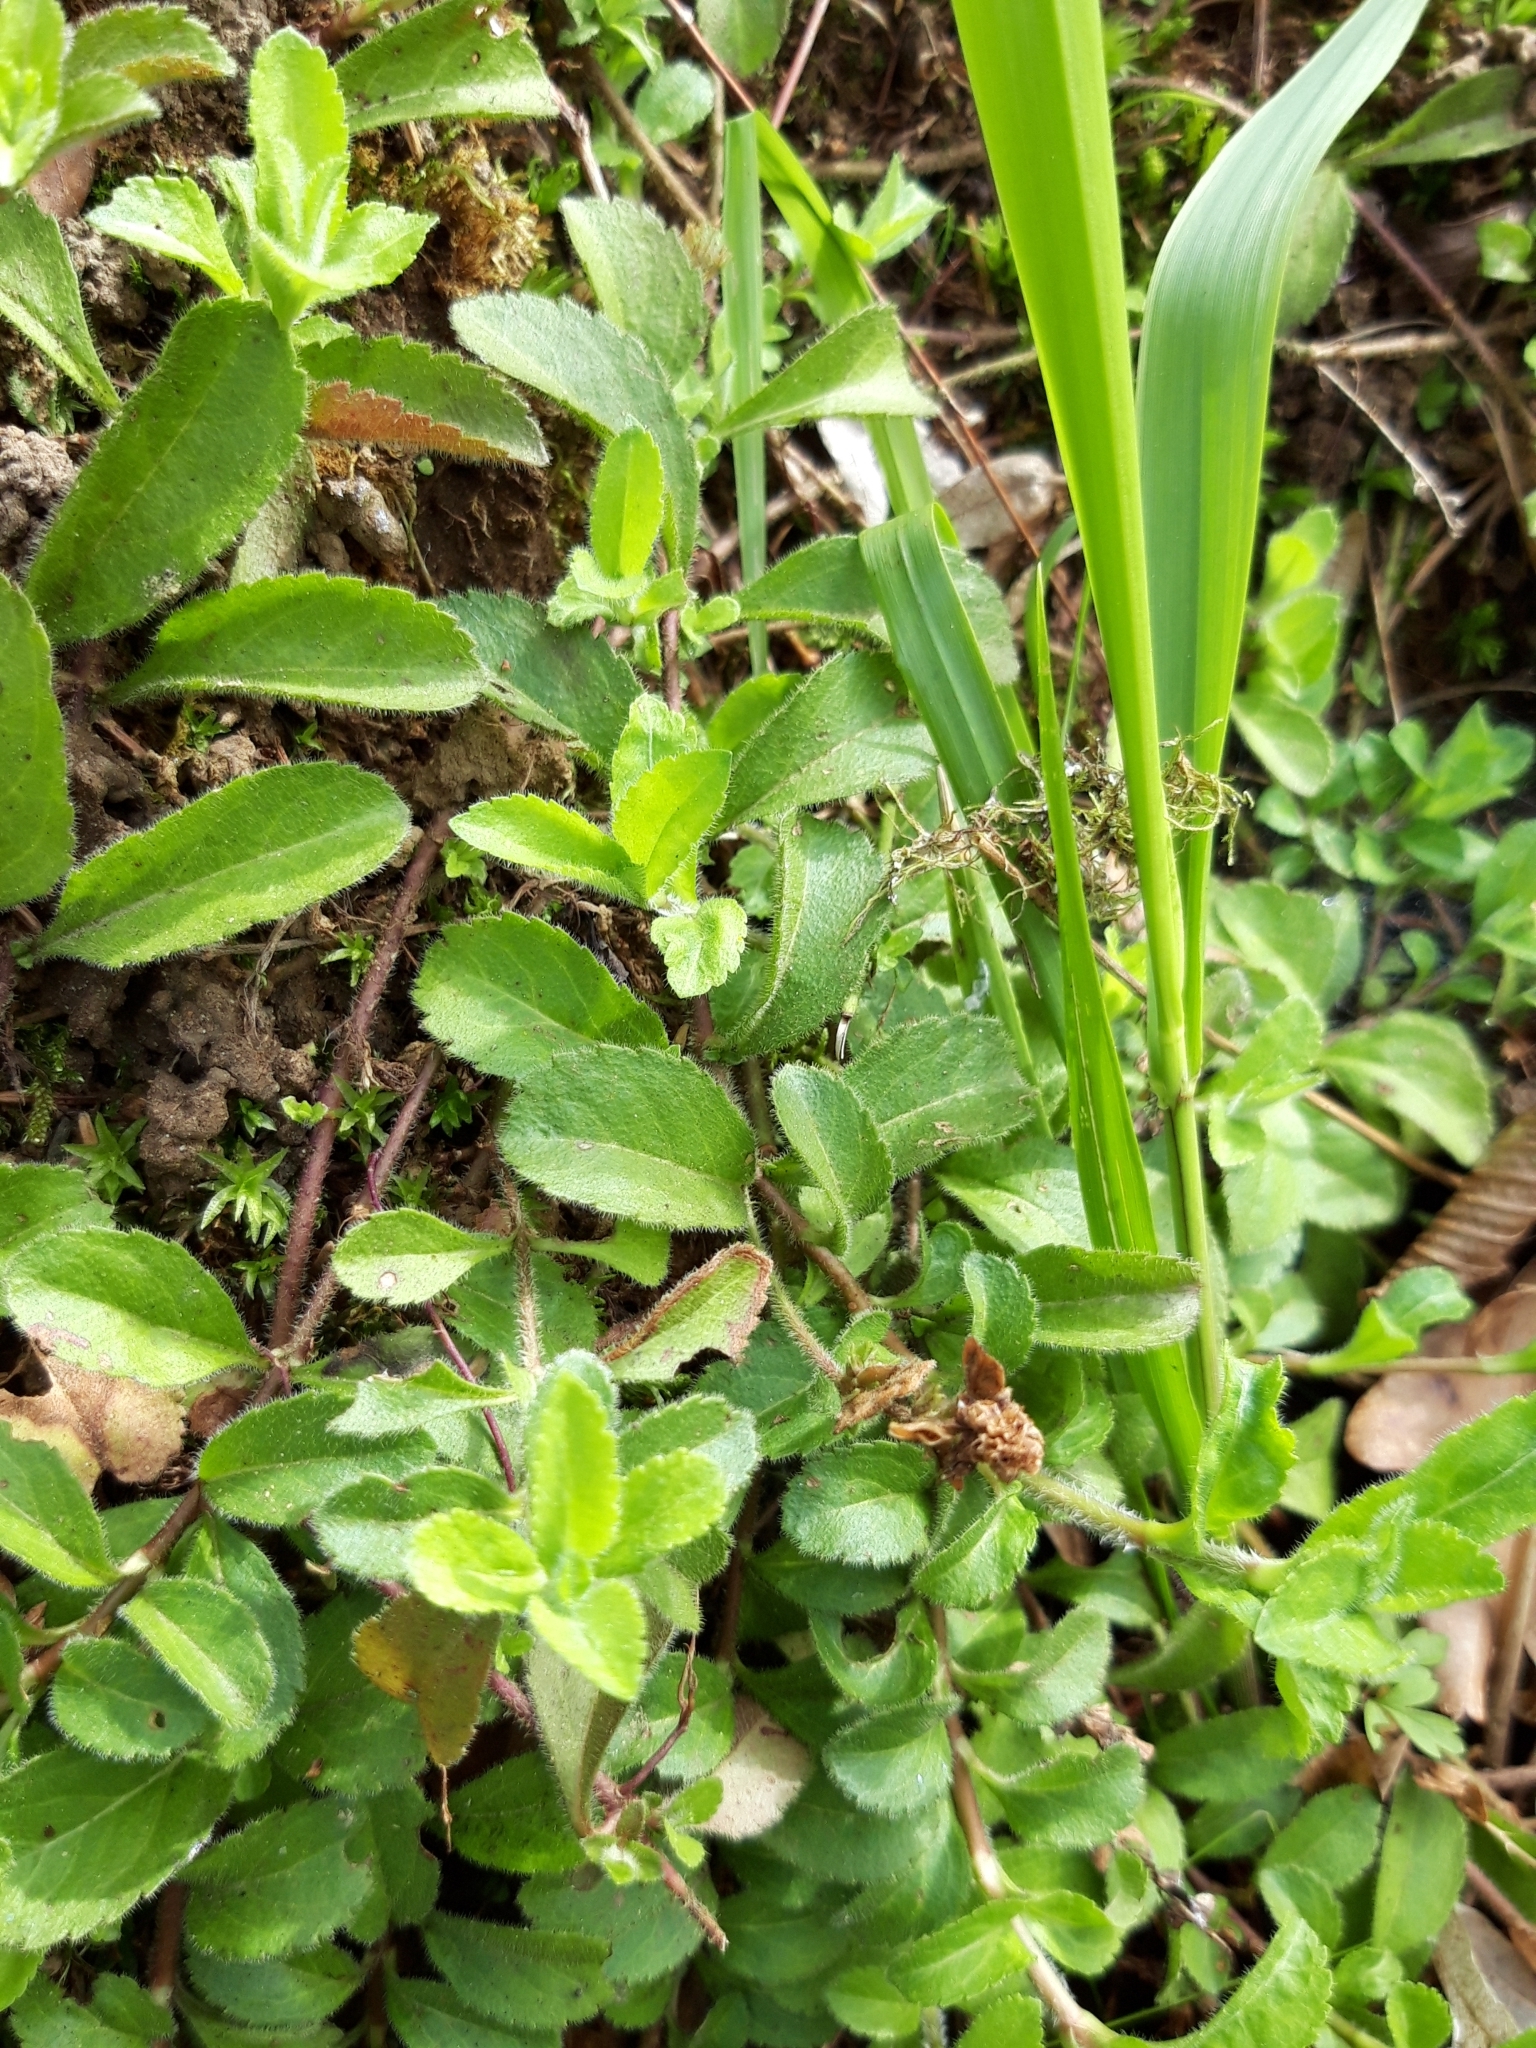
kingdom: Plantae
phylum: Tracheophyta
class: Magnoliopsida
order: Lamiales
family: Plantaginaceae
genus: Veronica
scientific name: Veronica officinalis
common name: Common speedwell
